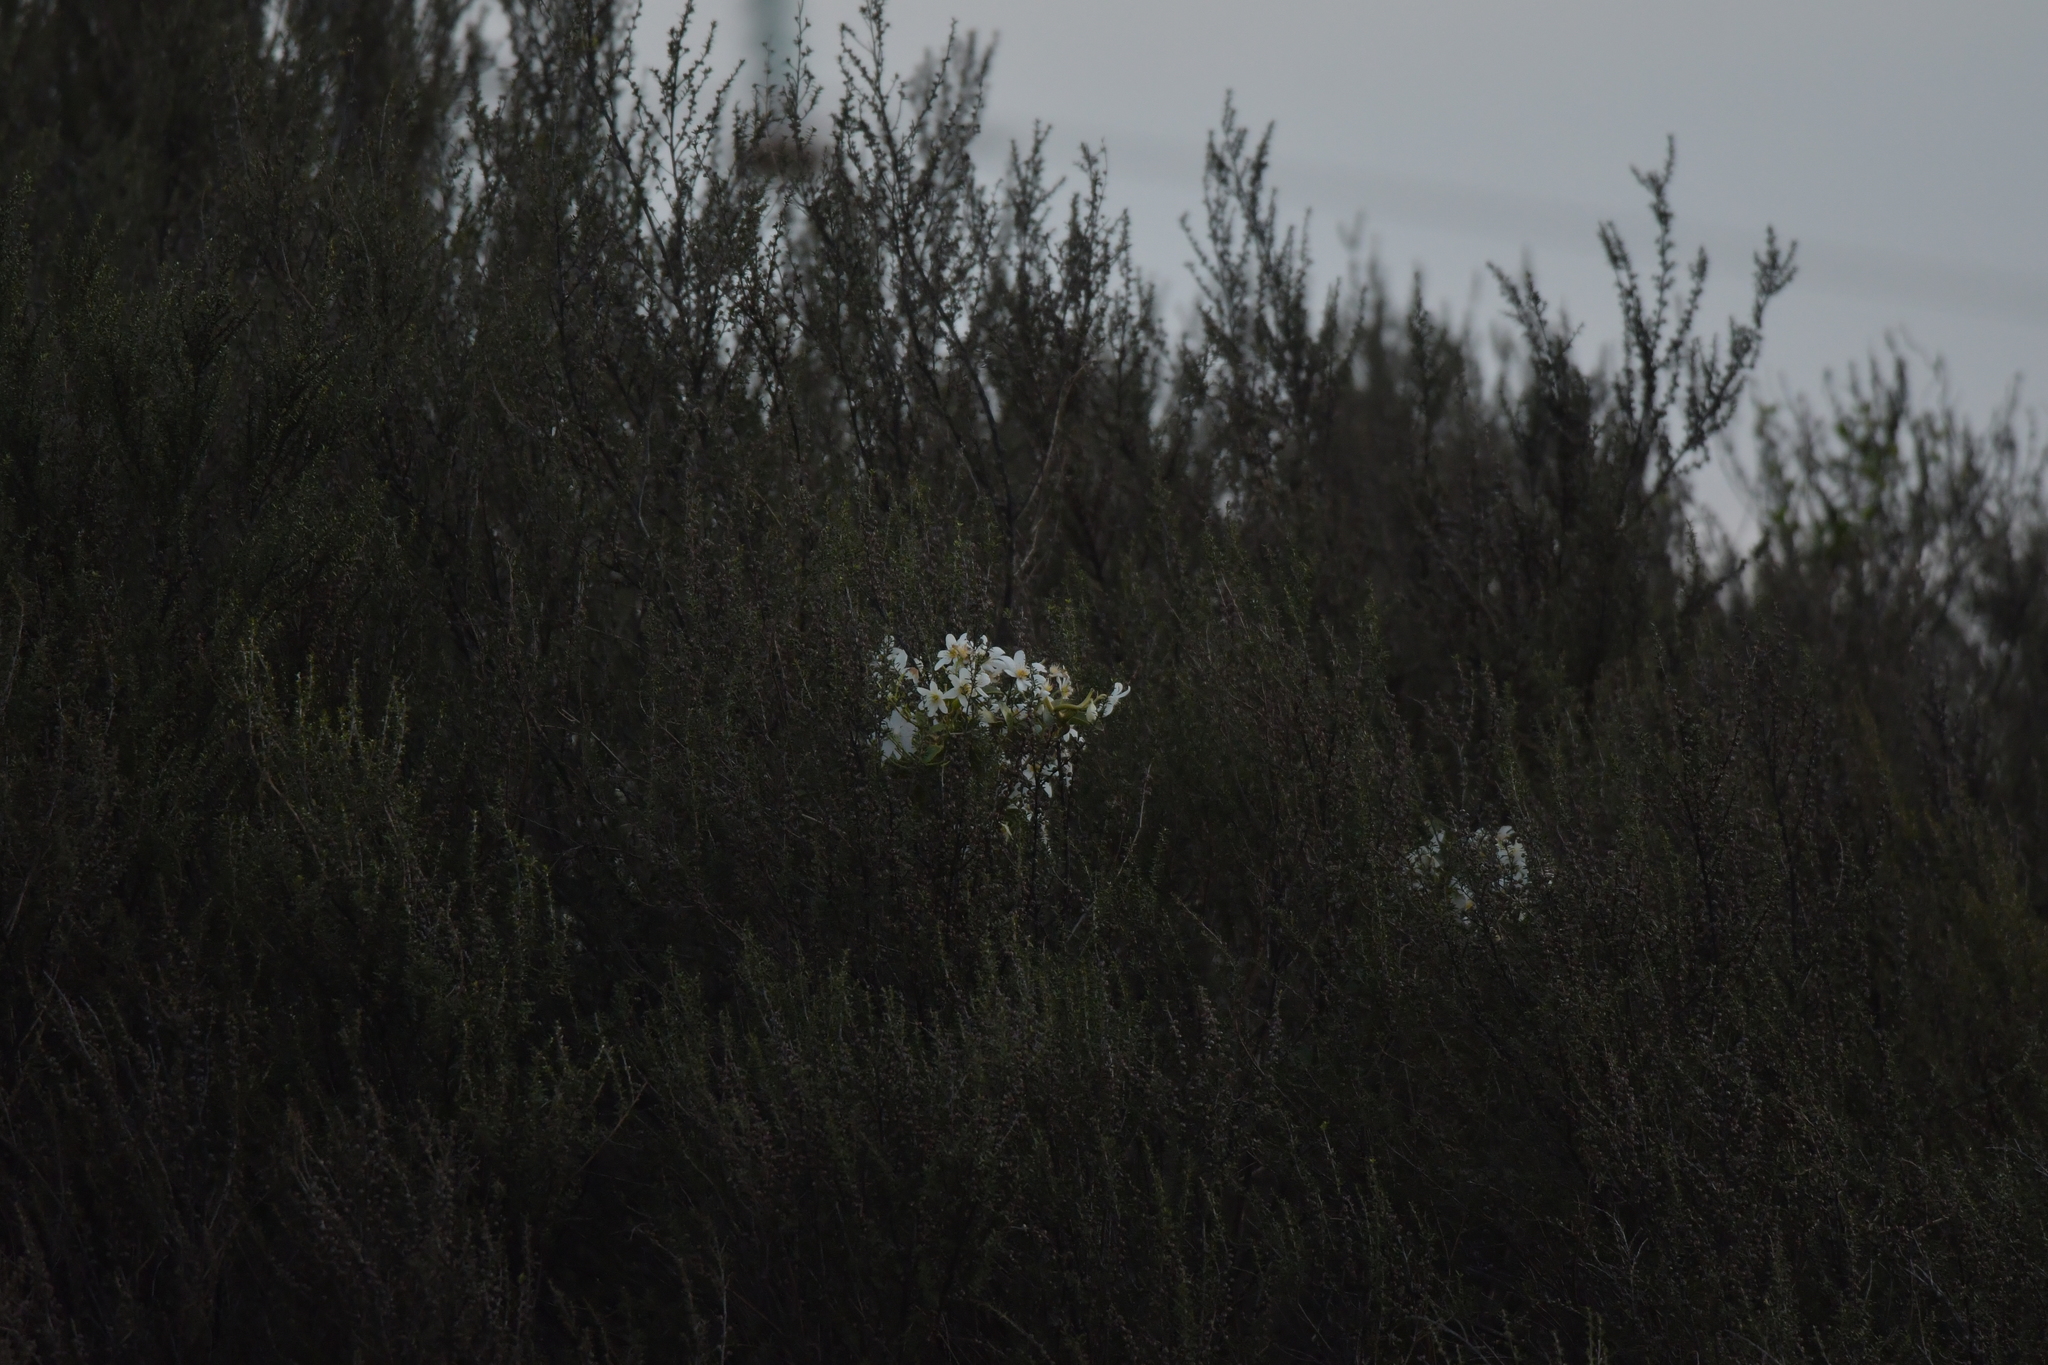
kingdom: Plantae
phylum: Tracheophyta
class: Magnoliopsida
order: Ranunculales
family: Ranunculaceae
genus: Clematis
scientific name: Clematis paniculata
